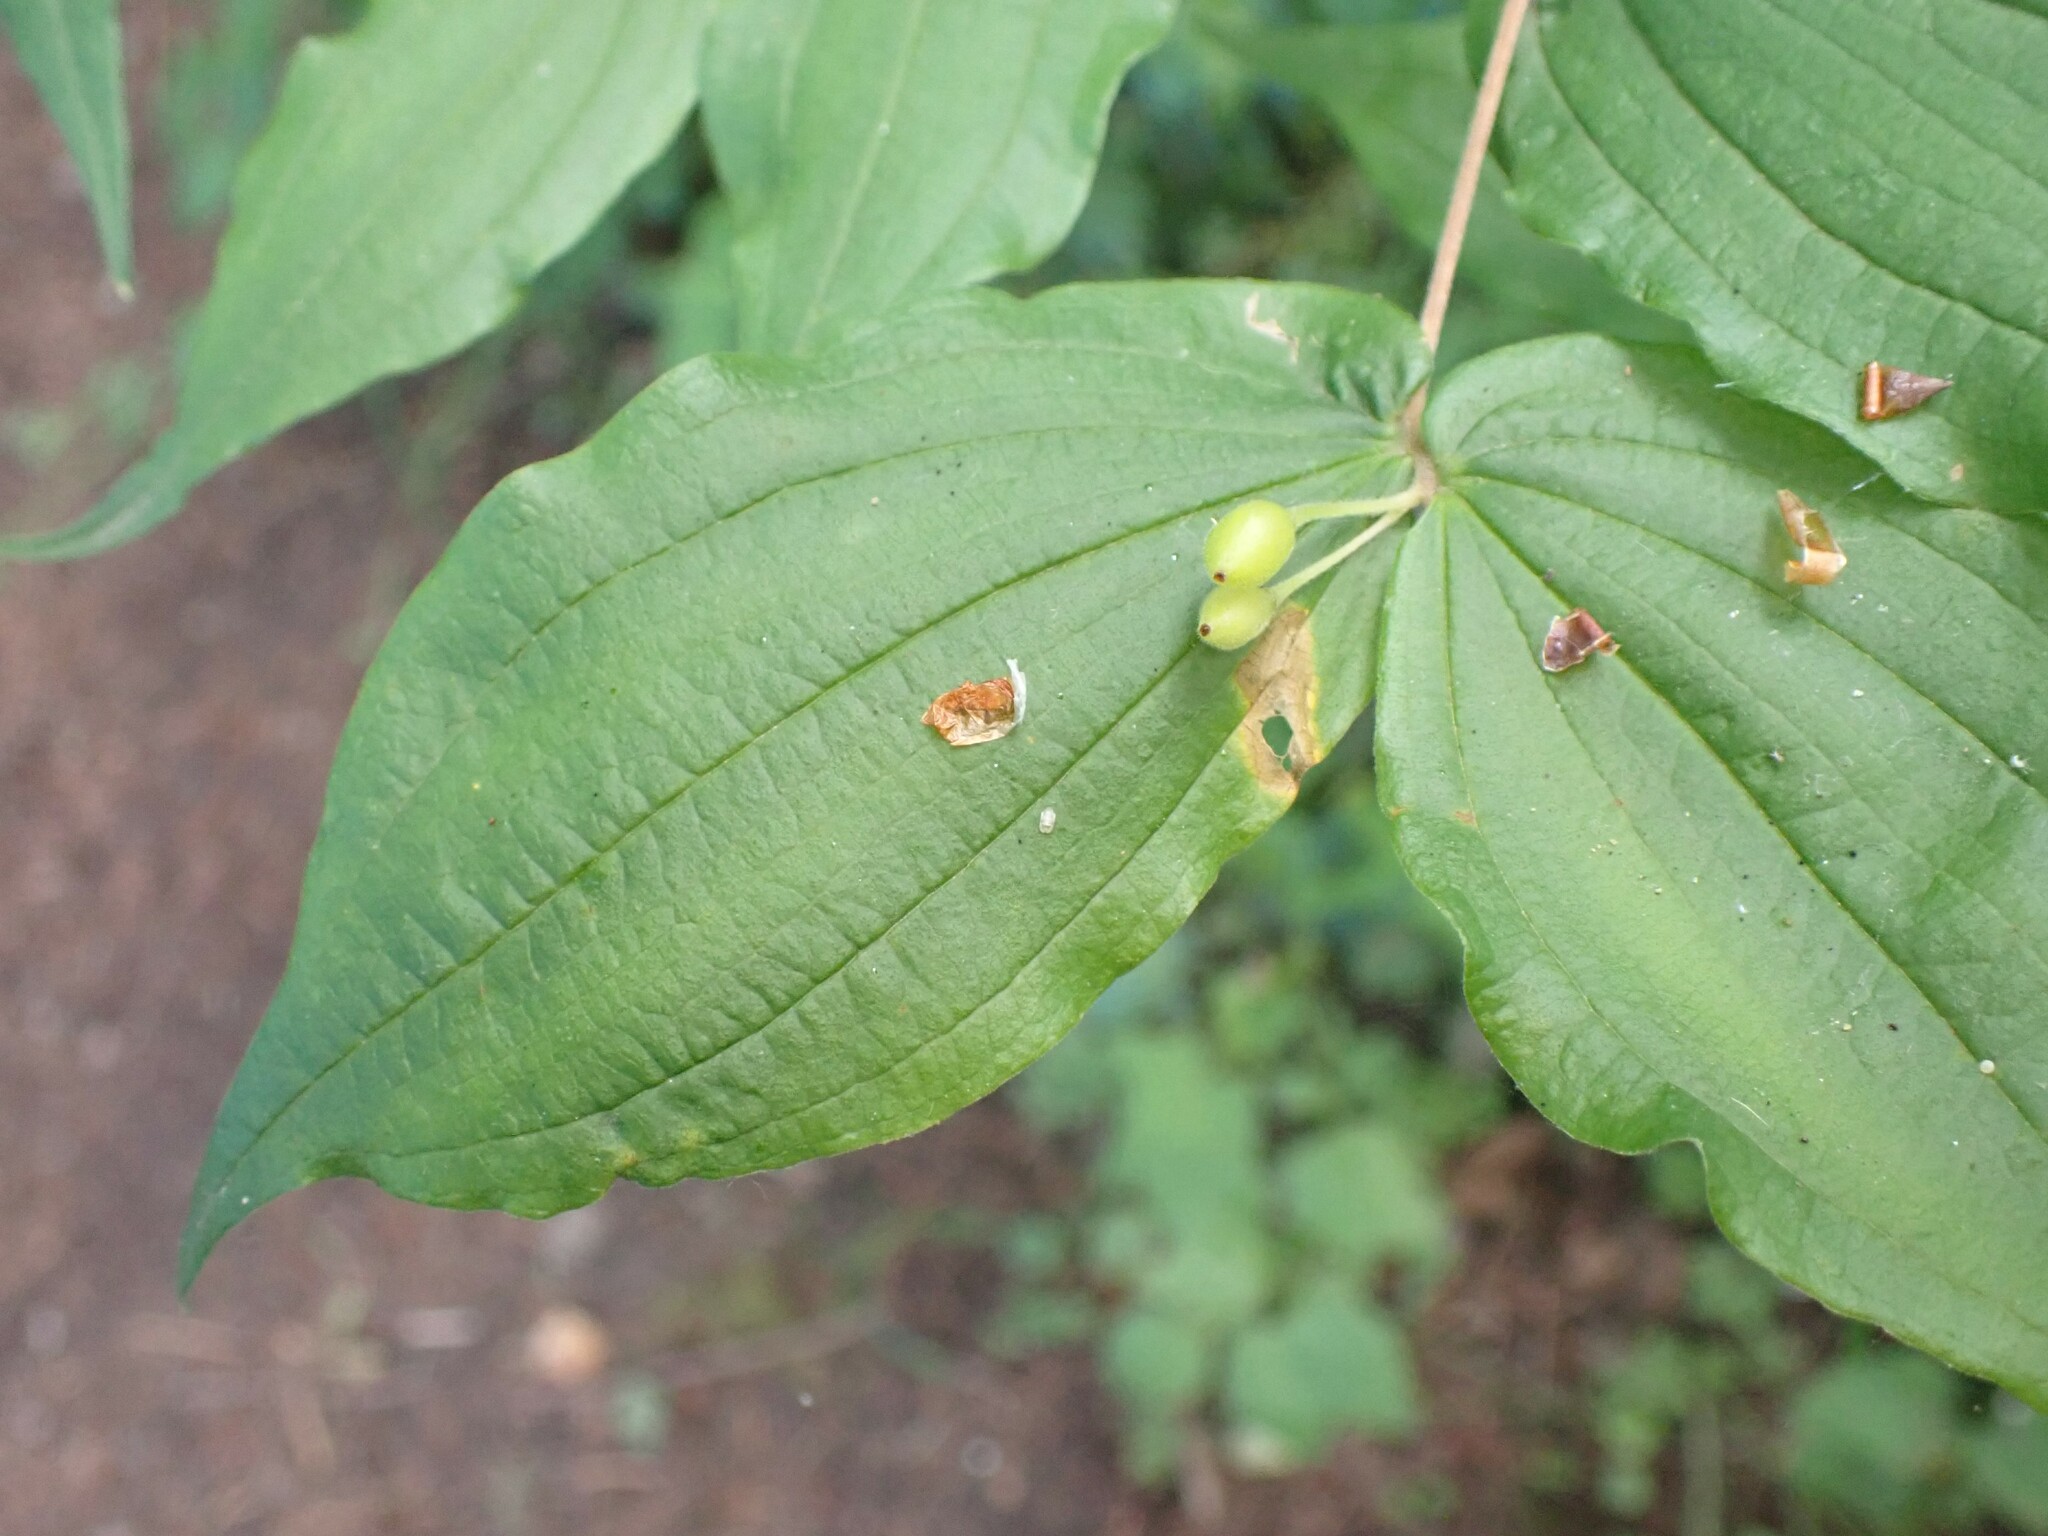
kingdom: Plantae
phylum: Tracheophyta
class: Liliopsida
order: Liliales
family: Liliaceae
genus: Prosartes
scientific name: Prosartes hookeri
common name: Fairy-bells
